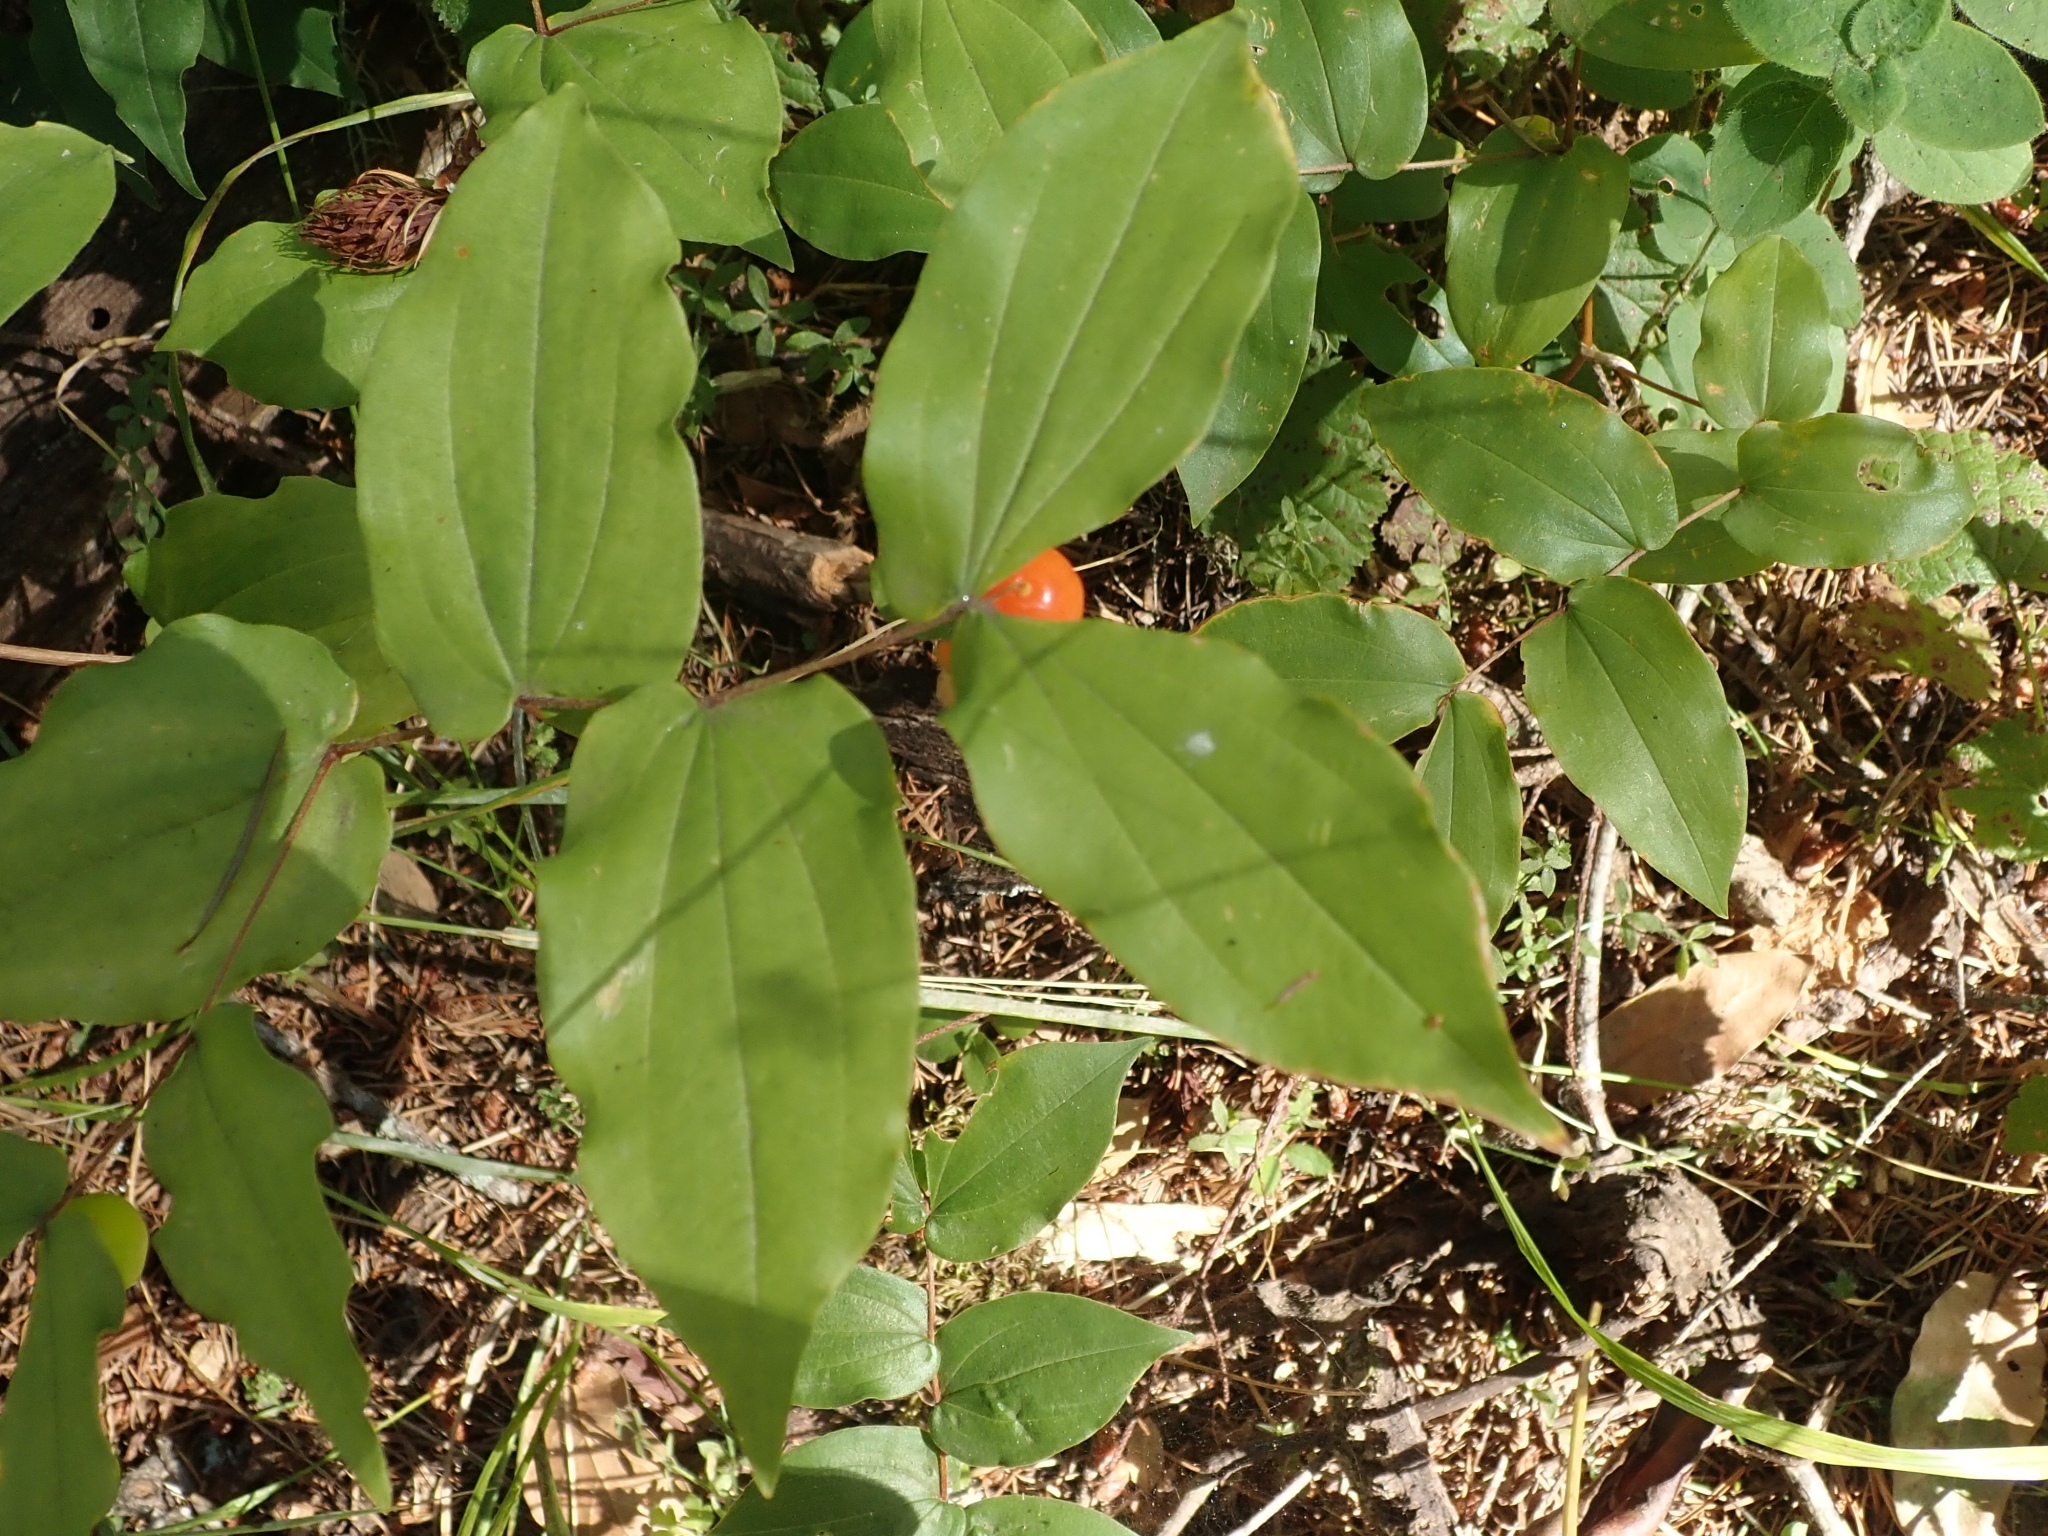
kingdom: Plantae
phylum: Tracheophyta
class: Liliopsida
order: Liliales
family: Liliaceae
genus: Prosartes
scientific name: Prosartes hookeri
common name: Fairy-bells
